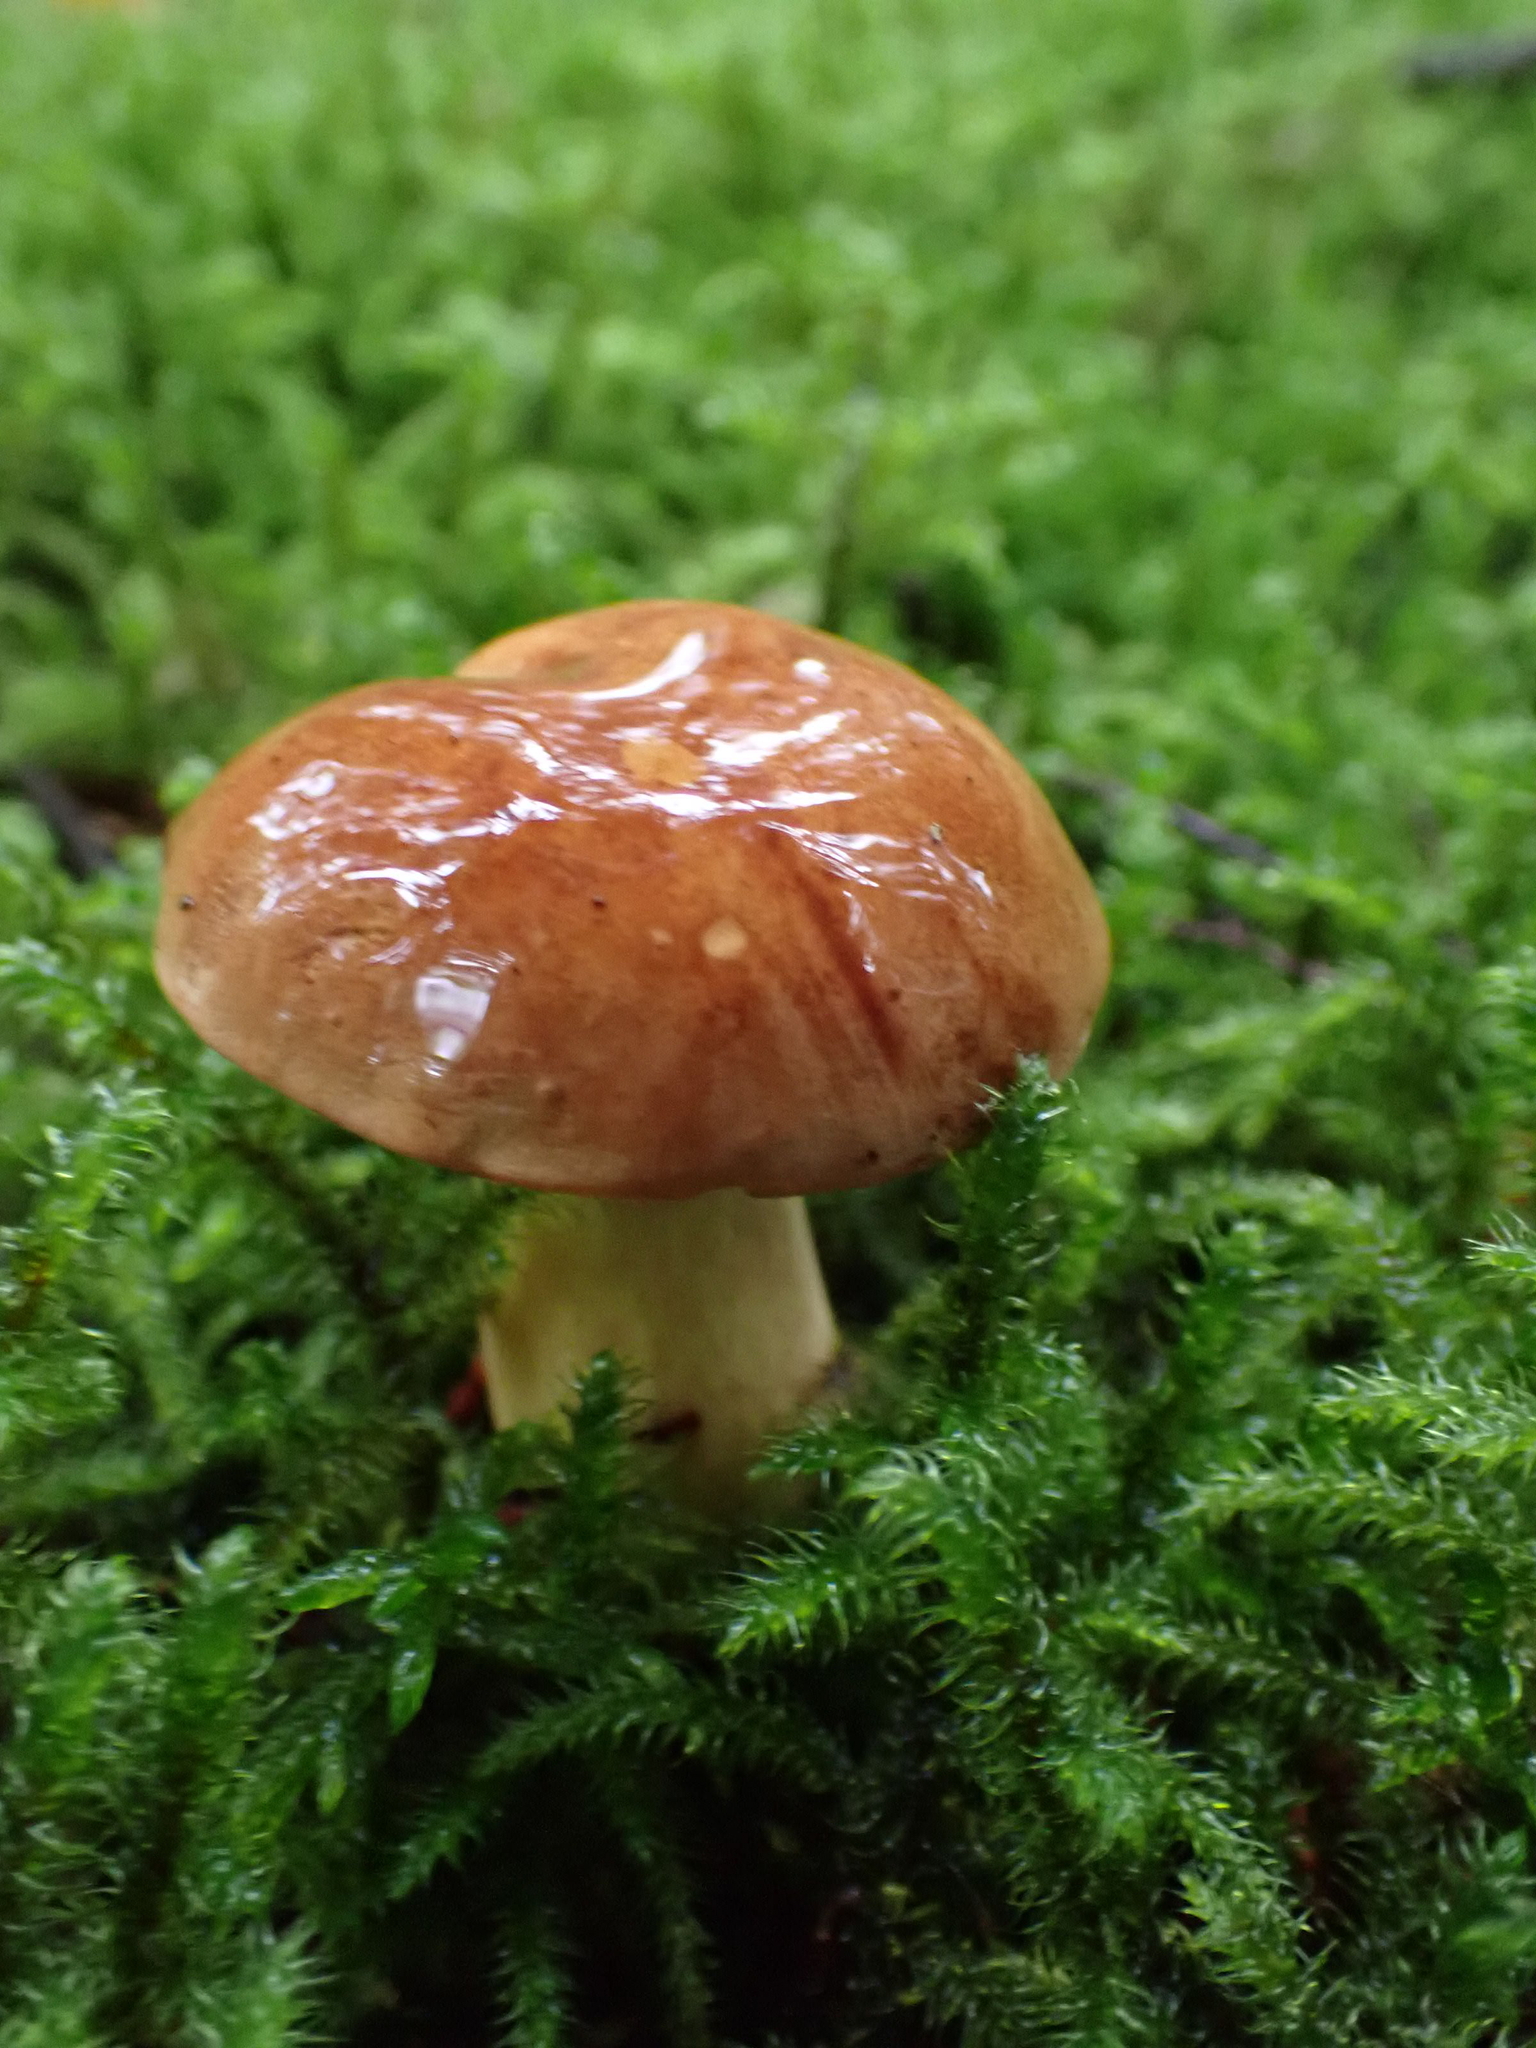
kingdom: Fungi
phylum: Basidiomycota
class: Agaricomycetes
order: Boletales
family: Boletaceae
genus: Imleria
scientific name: Imleria badia
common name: Bay bolete
